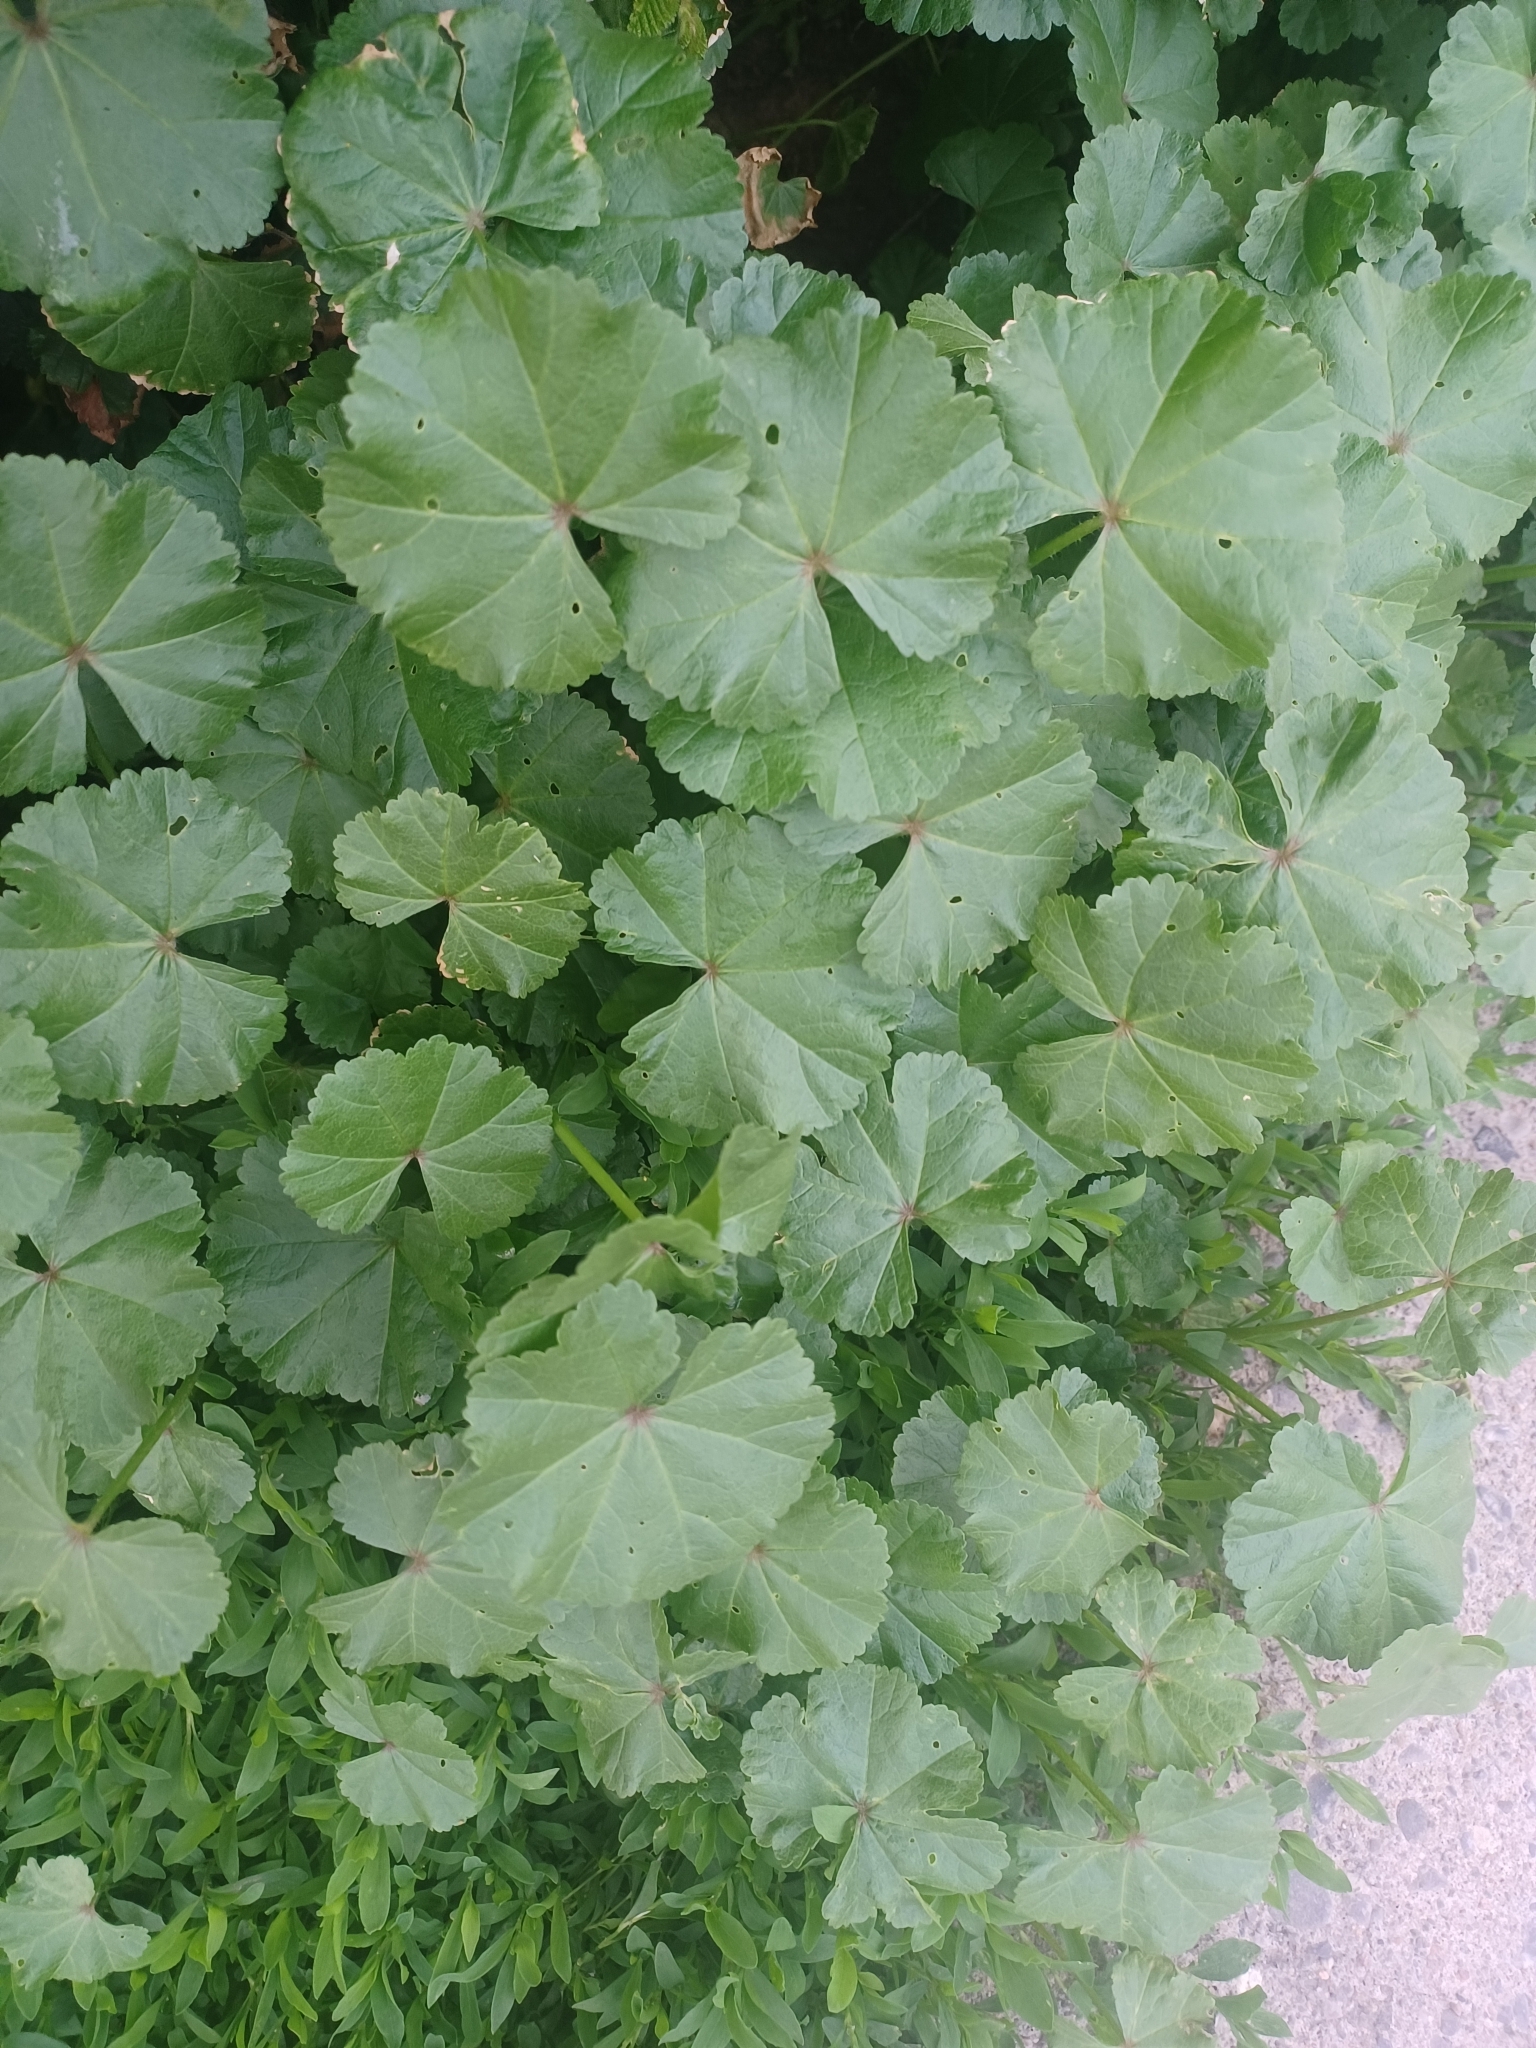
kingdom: Plantae
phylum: Tracheophyta
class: Magnoliopsida
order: Malvales
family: Malvaceae
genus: Malva
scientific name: Malva neglecta
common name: Common mallow
